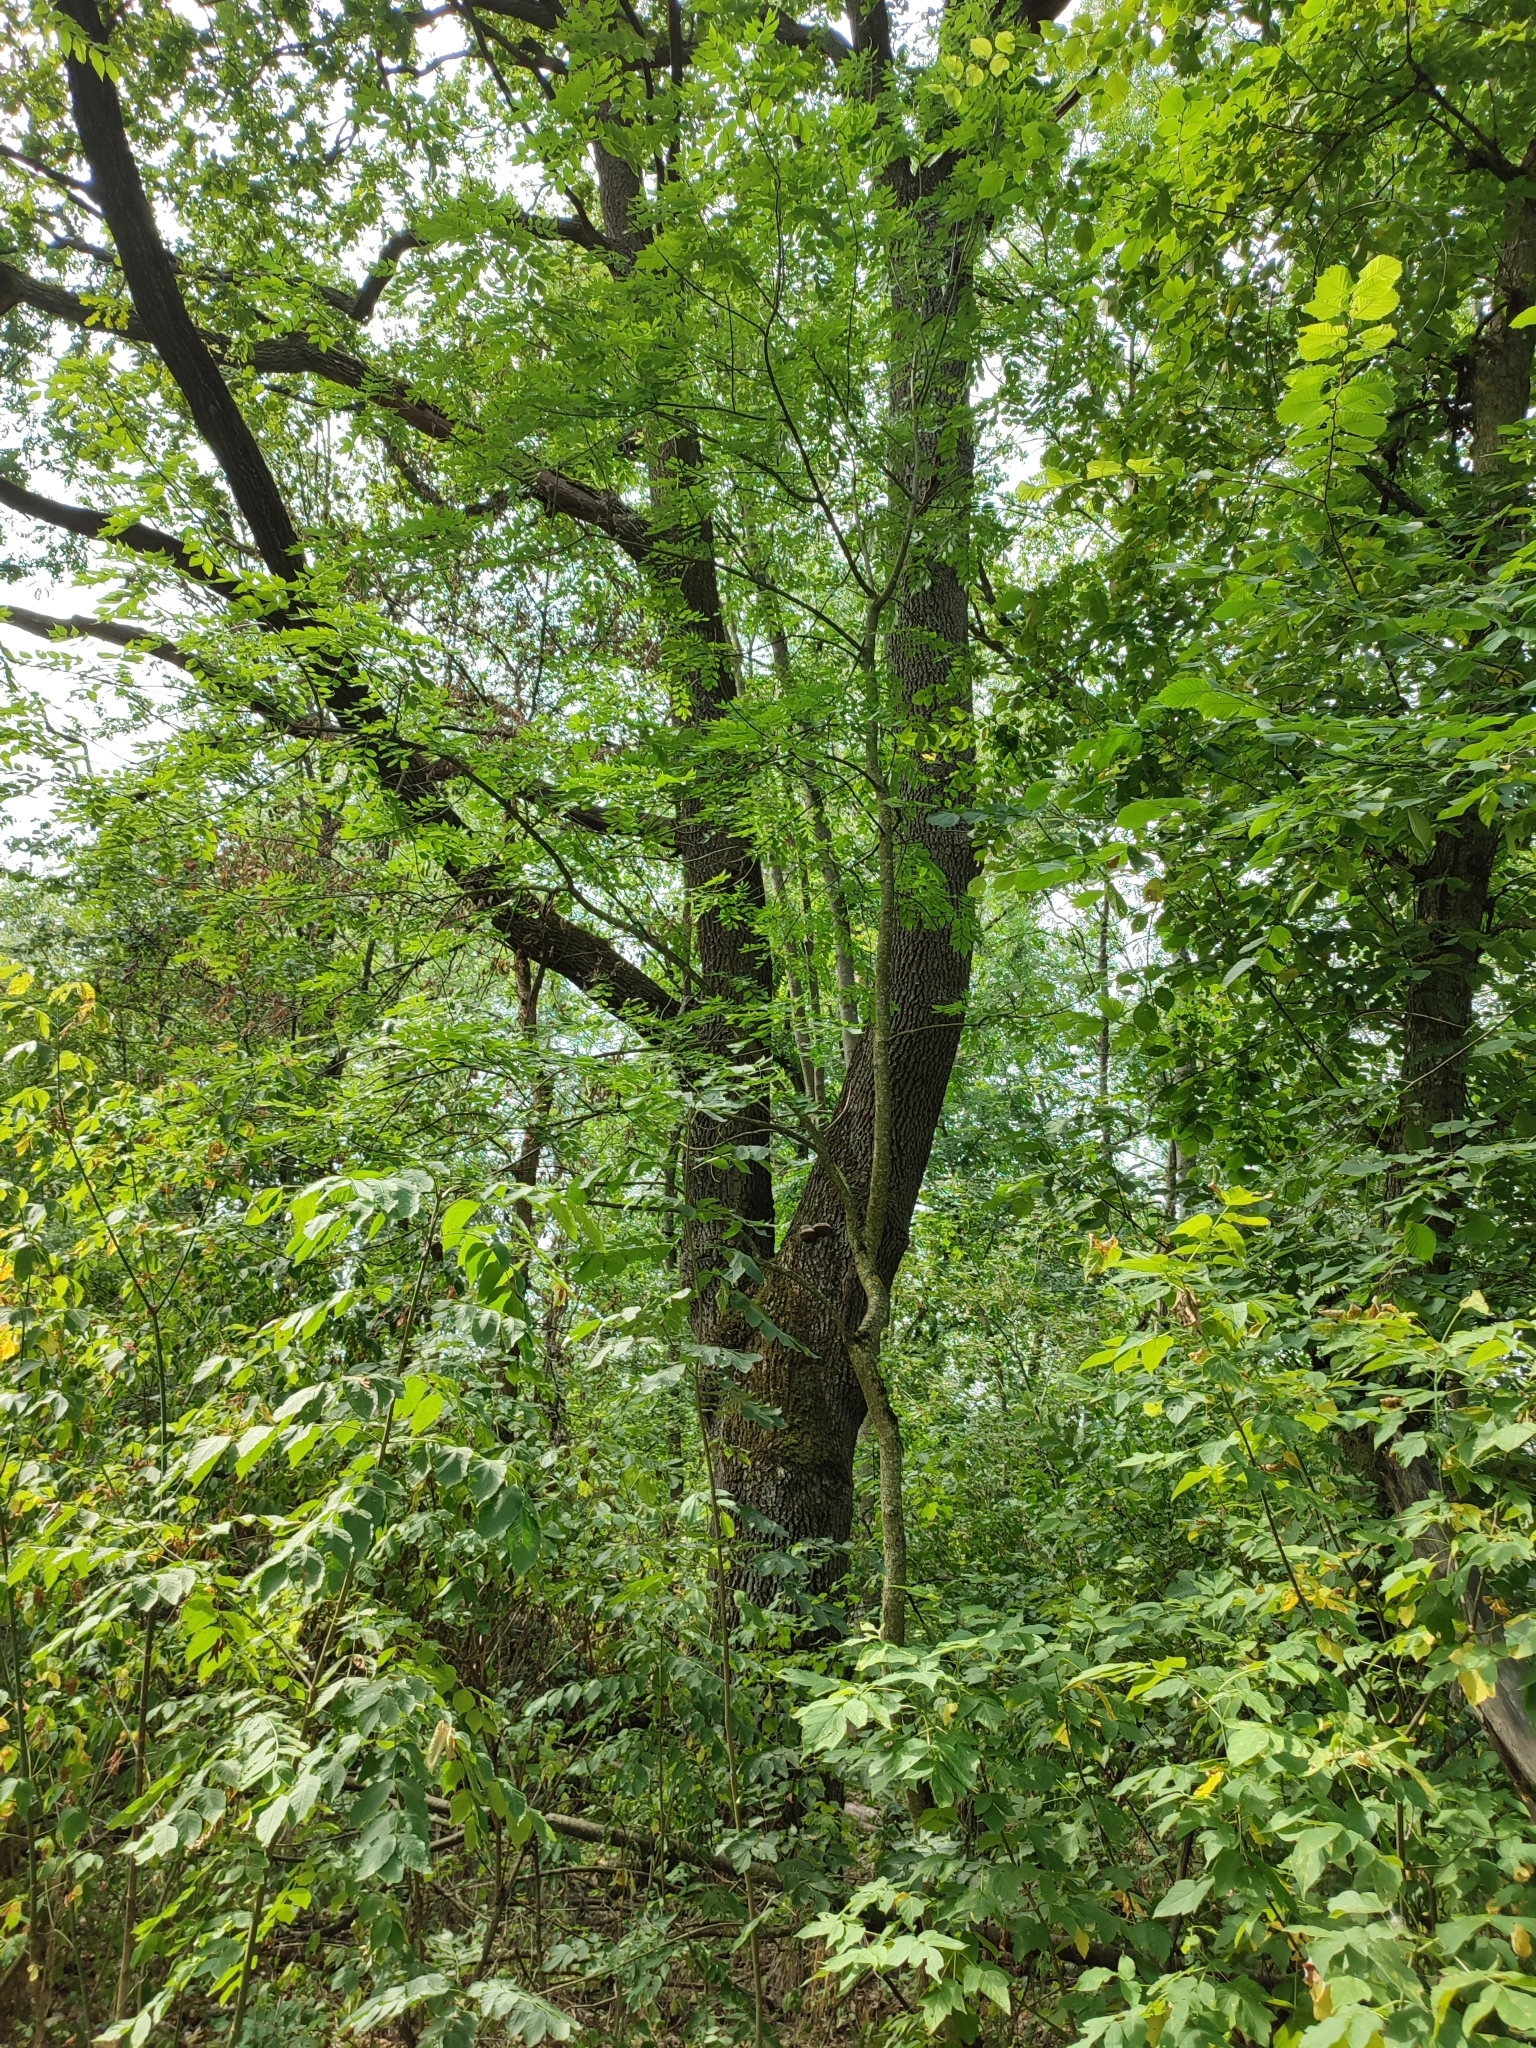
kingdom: Plantae
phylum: Tracheophyta
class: Magnoliopsida
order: Fagales
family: Fagaceae
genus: Quercus
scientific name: Quercus robur
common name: Pedunculate oak
